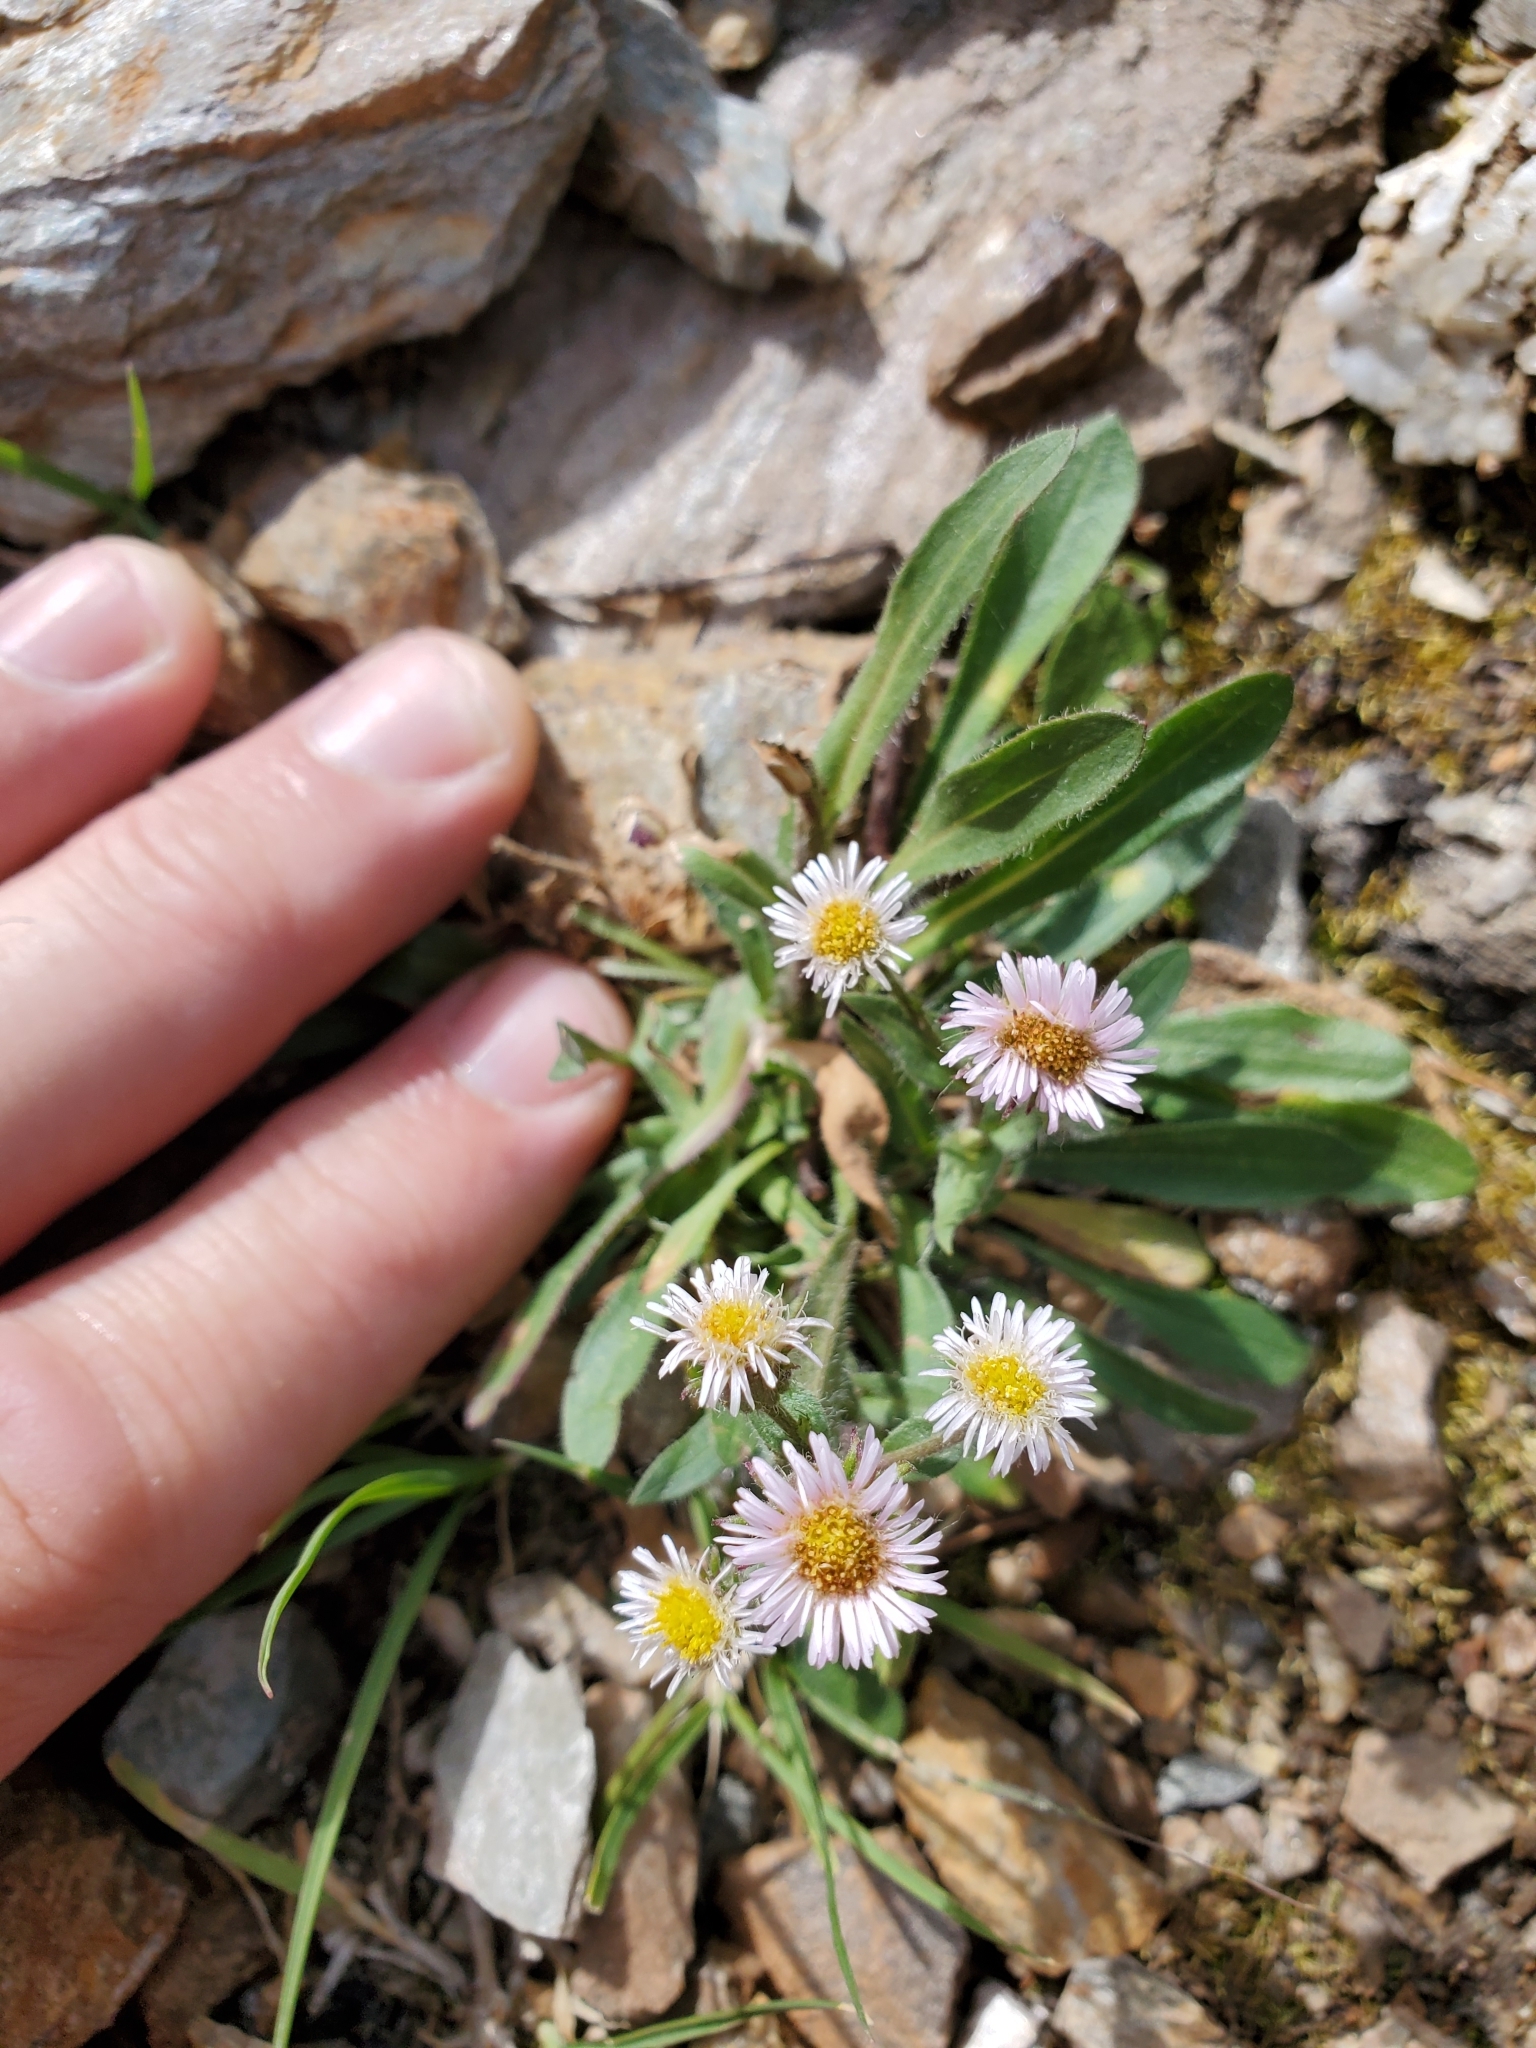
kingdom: Plantae
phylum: Tracheophyta
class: Magnoliopsida
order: Asterales
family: Asteraceae
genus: Erigeron
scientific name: Erigeron nivalis
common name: Snow fleabane
